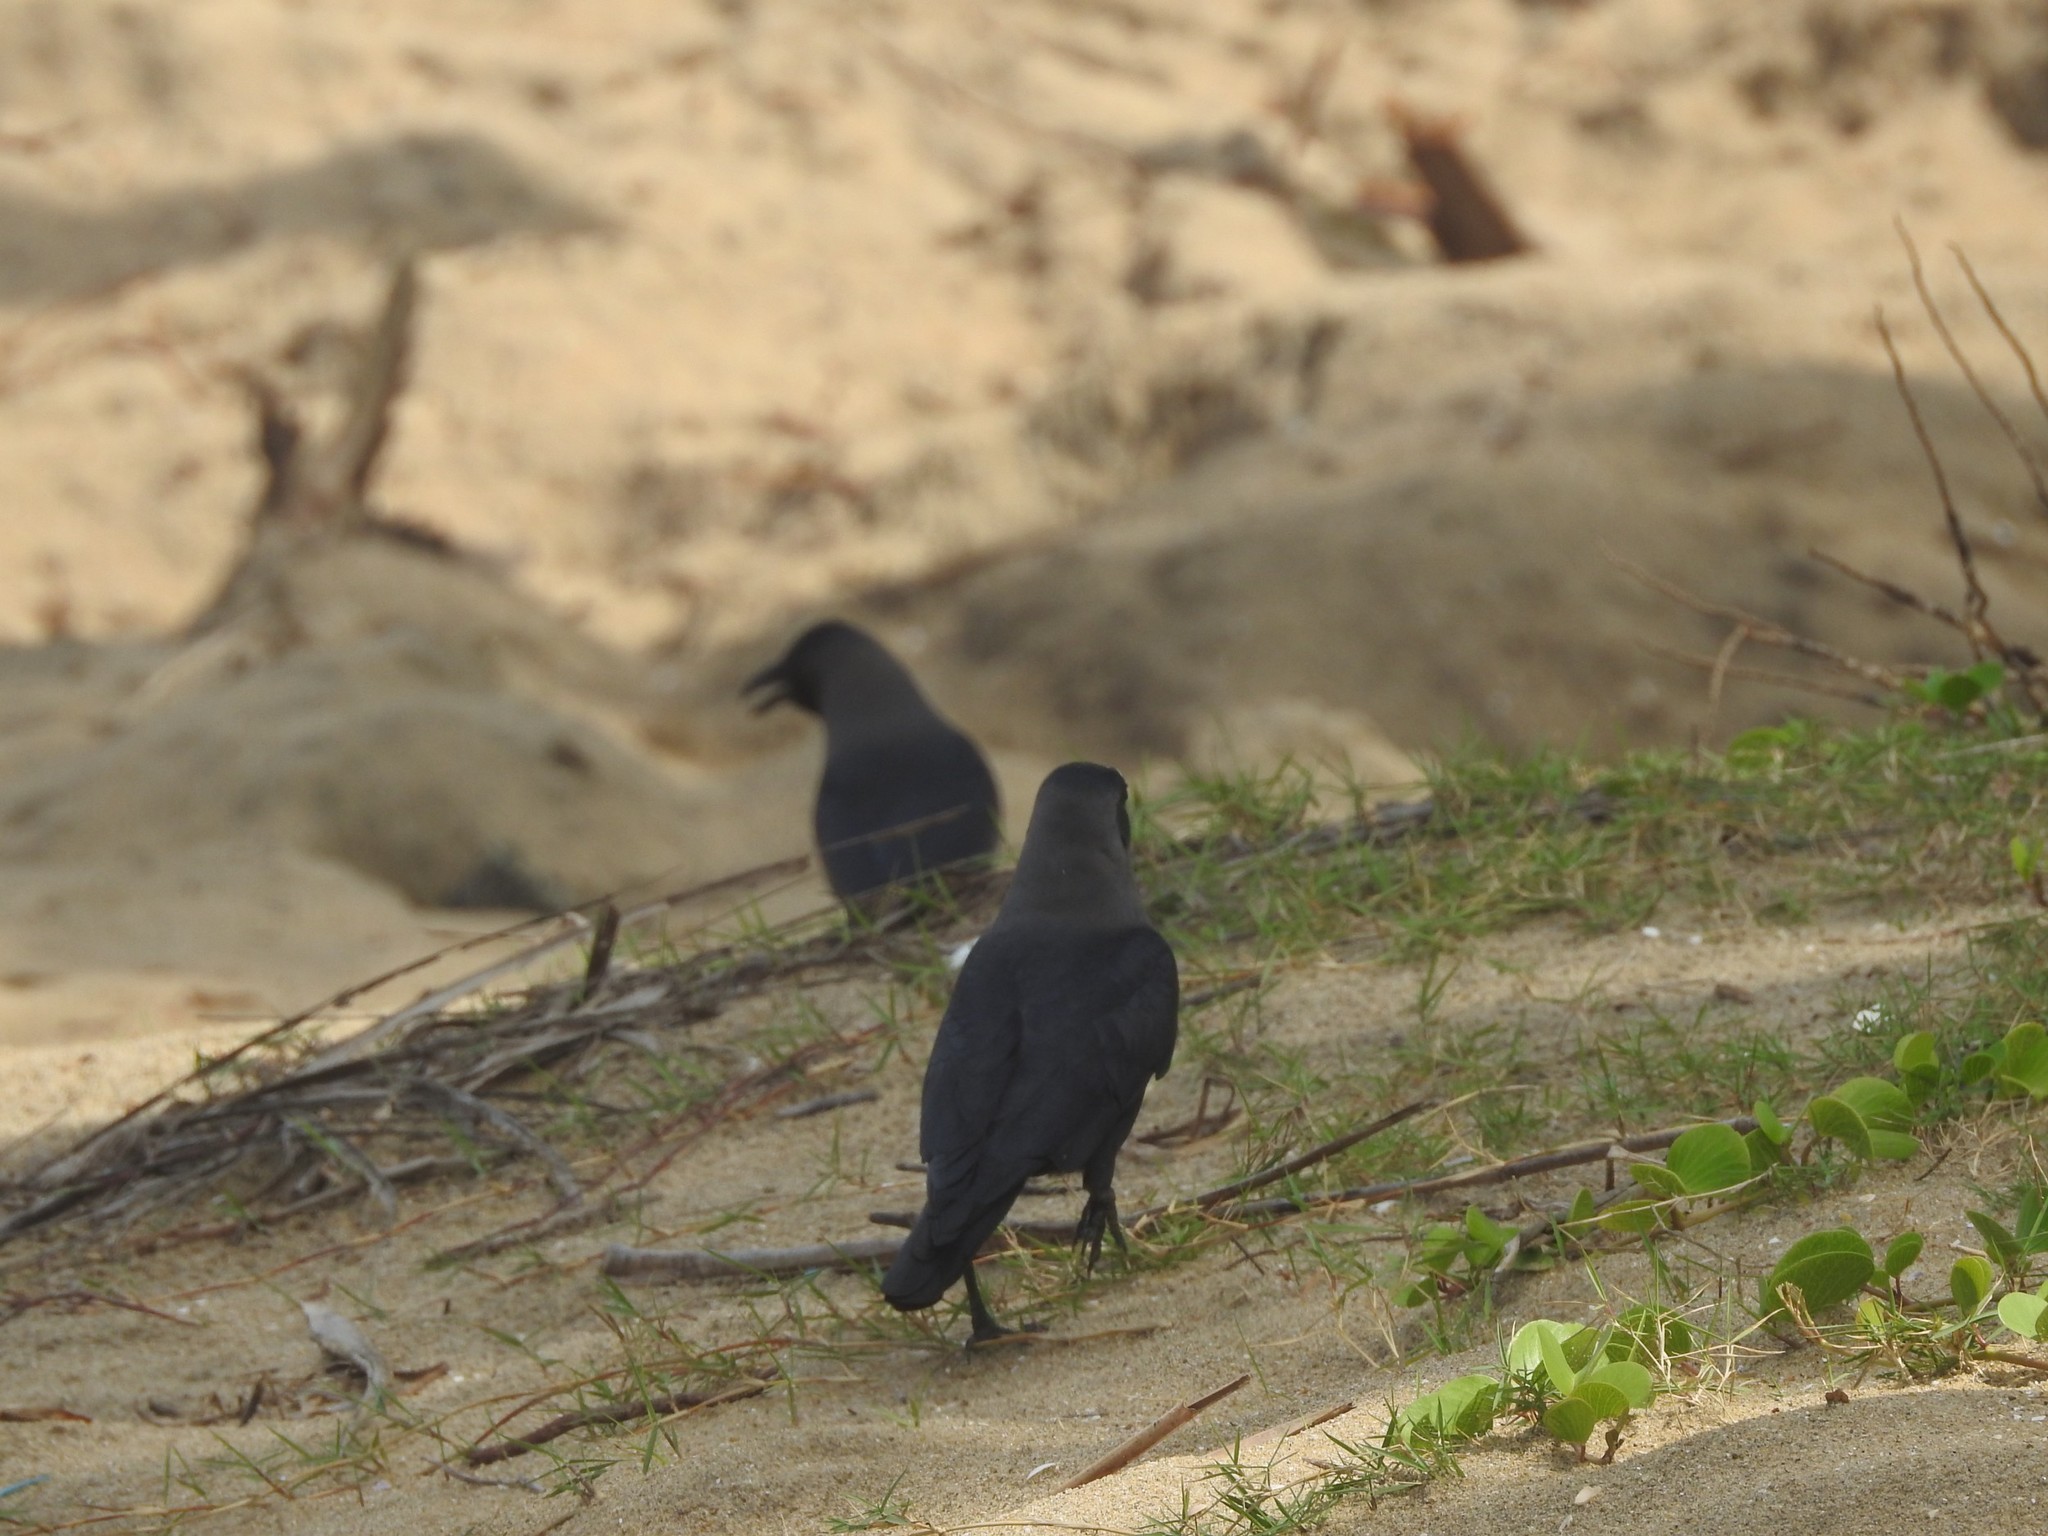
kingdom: Animalia
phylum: Chordata
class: Aves
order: Passeriformes
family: Corvidae
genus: Corvus
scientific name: Corvus splendens
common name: House crow
